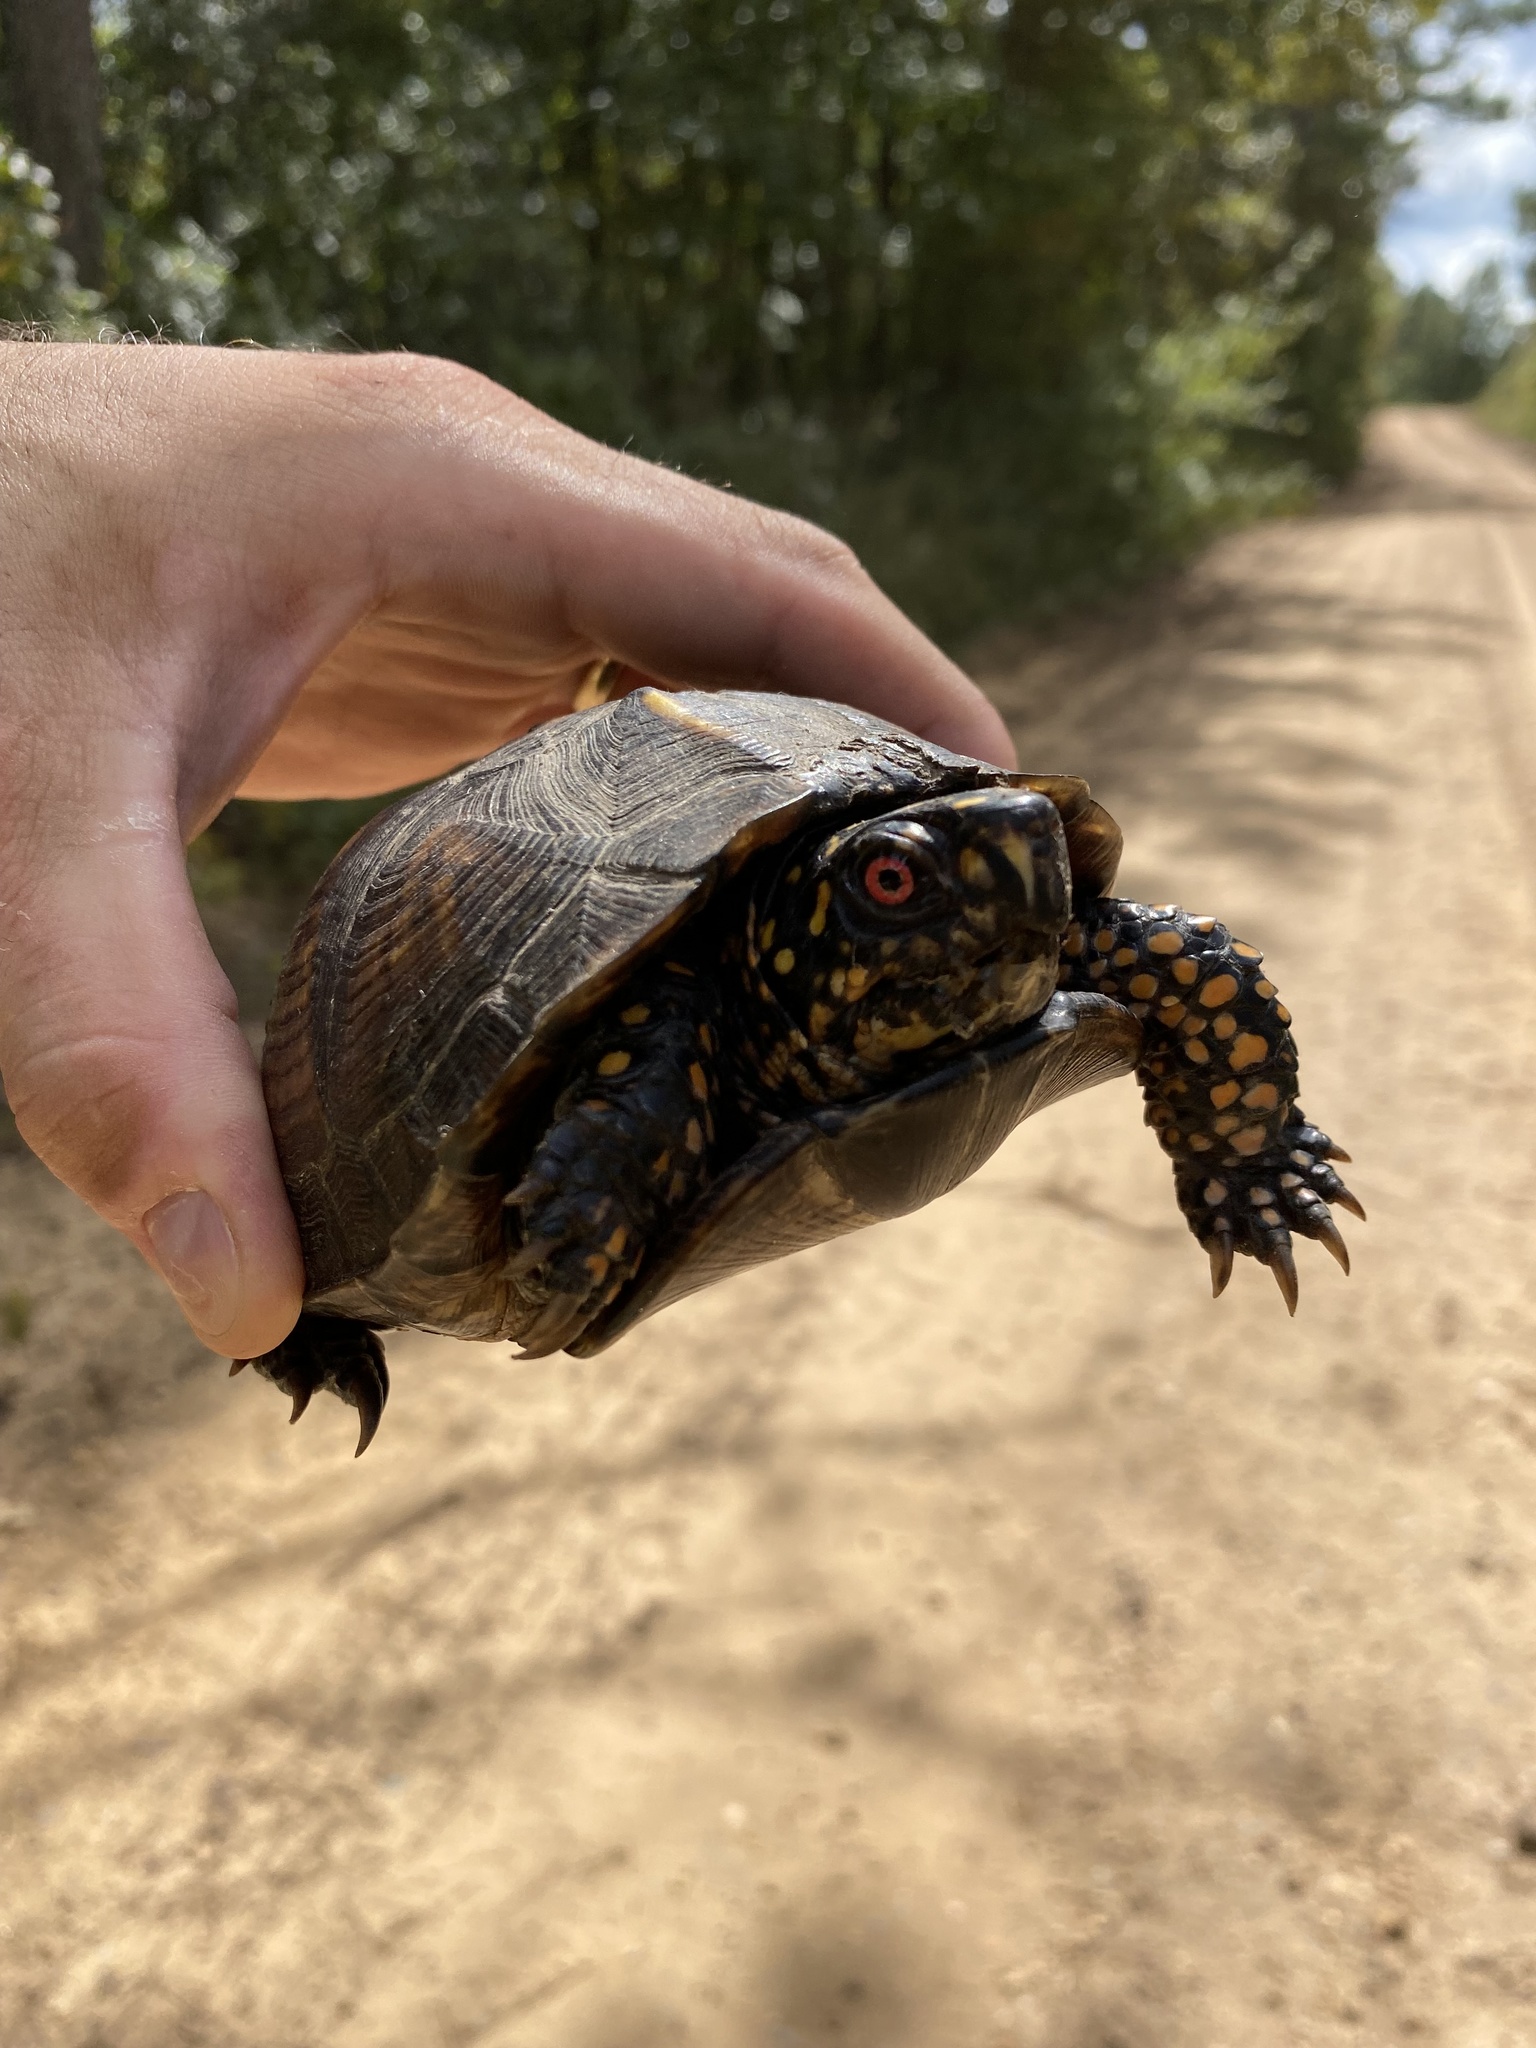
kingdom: Animalia
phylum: Chordata
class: Testudines
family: Emydidae
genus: Terrapene
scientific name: Terrapene carolina
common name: Common box turtle
